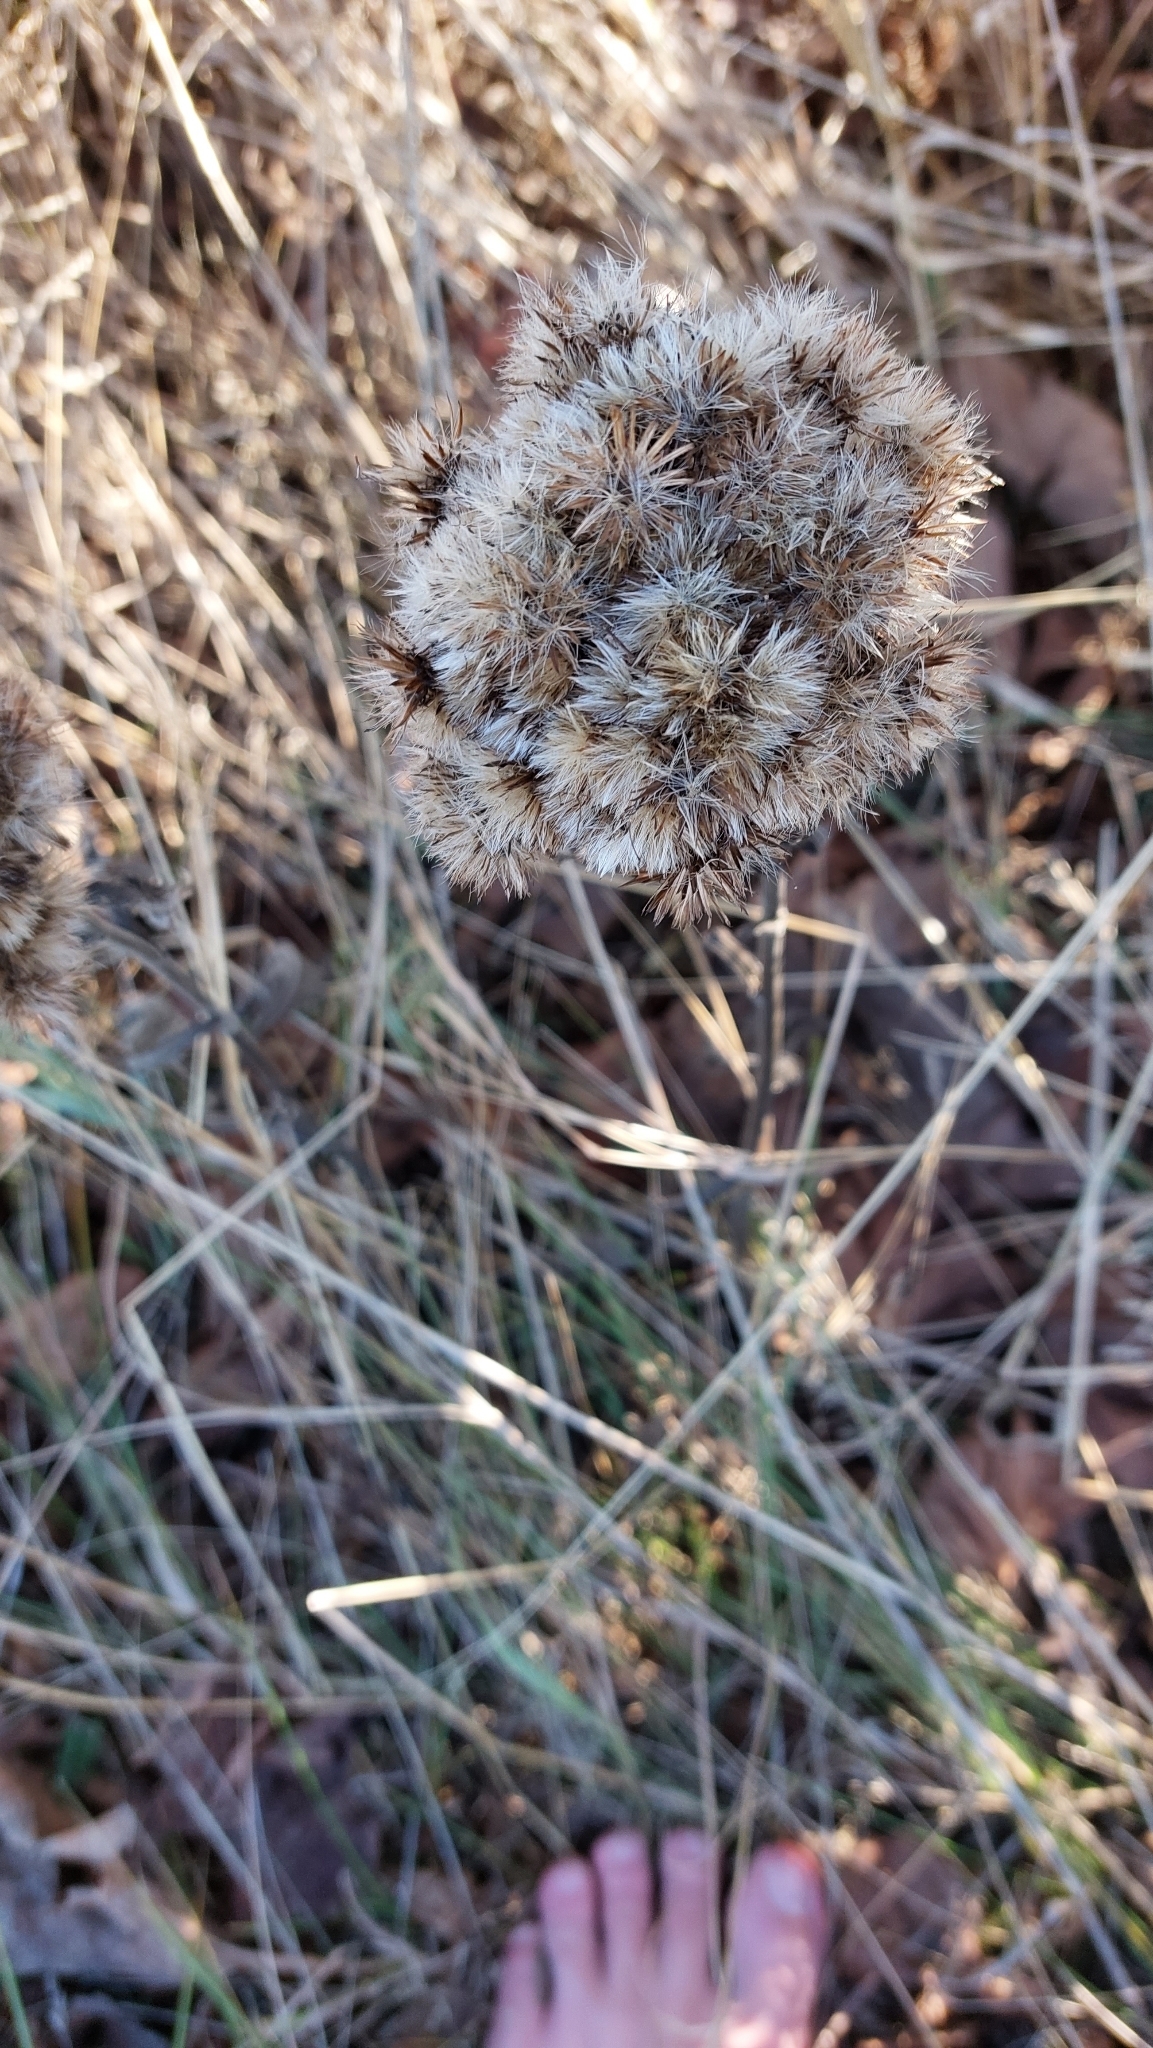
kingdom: Plantae
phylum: Tracheophyta
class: Magnoliopsida
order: Asterales
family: Asteraceae
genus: Pentanema
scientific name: Pentanema squarrosum
